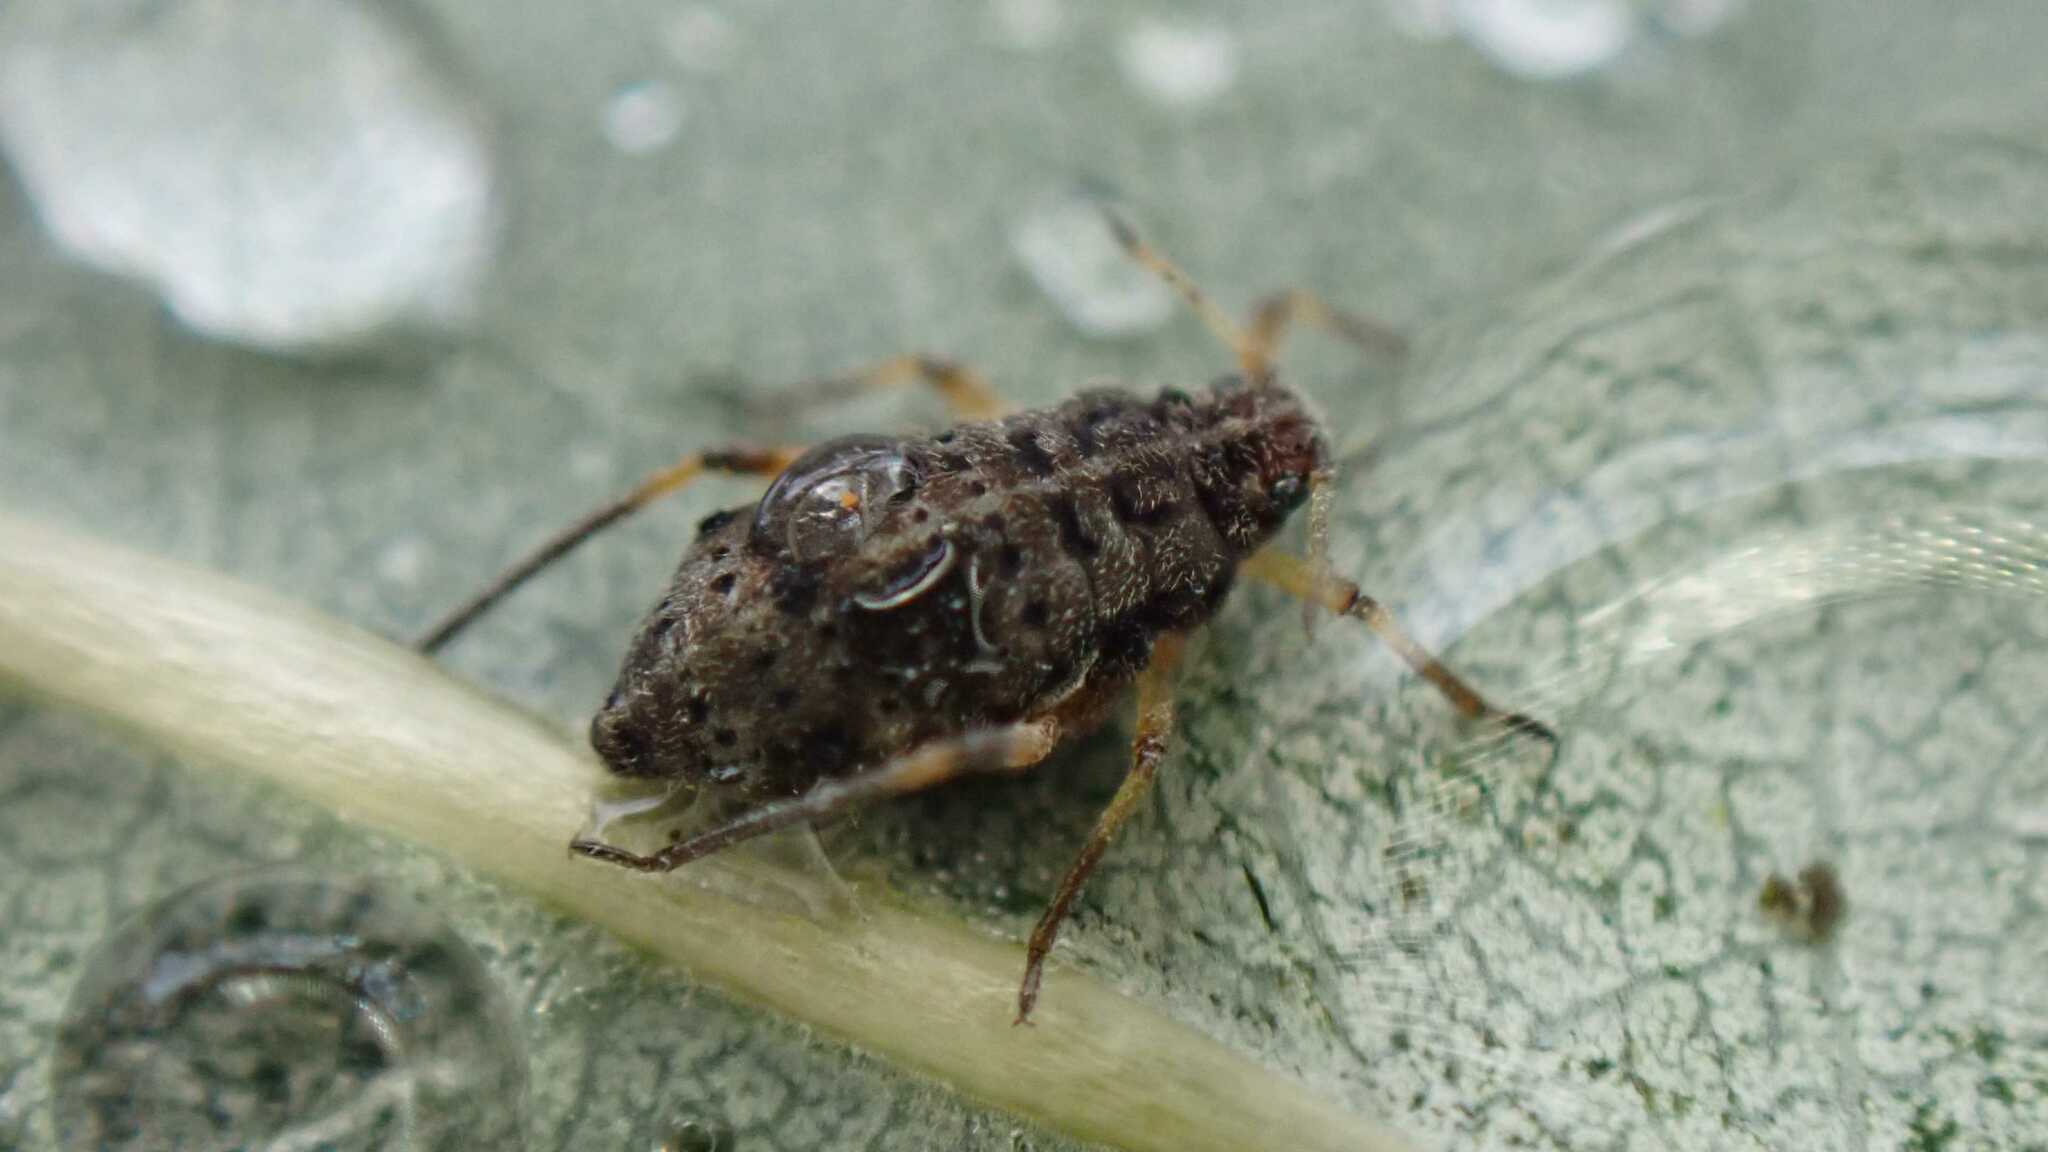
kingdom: Animalia
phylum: Arthropoda
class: Insecta
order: Hemiptera
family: Aphididae
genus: Tuberolachnus
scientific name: Tuberolachnus salignus
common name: Giant willow aphid
